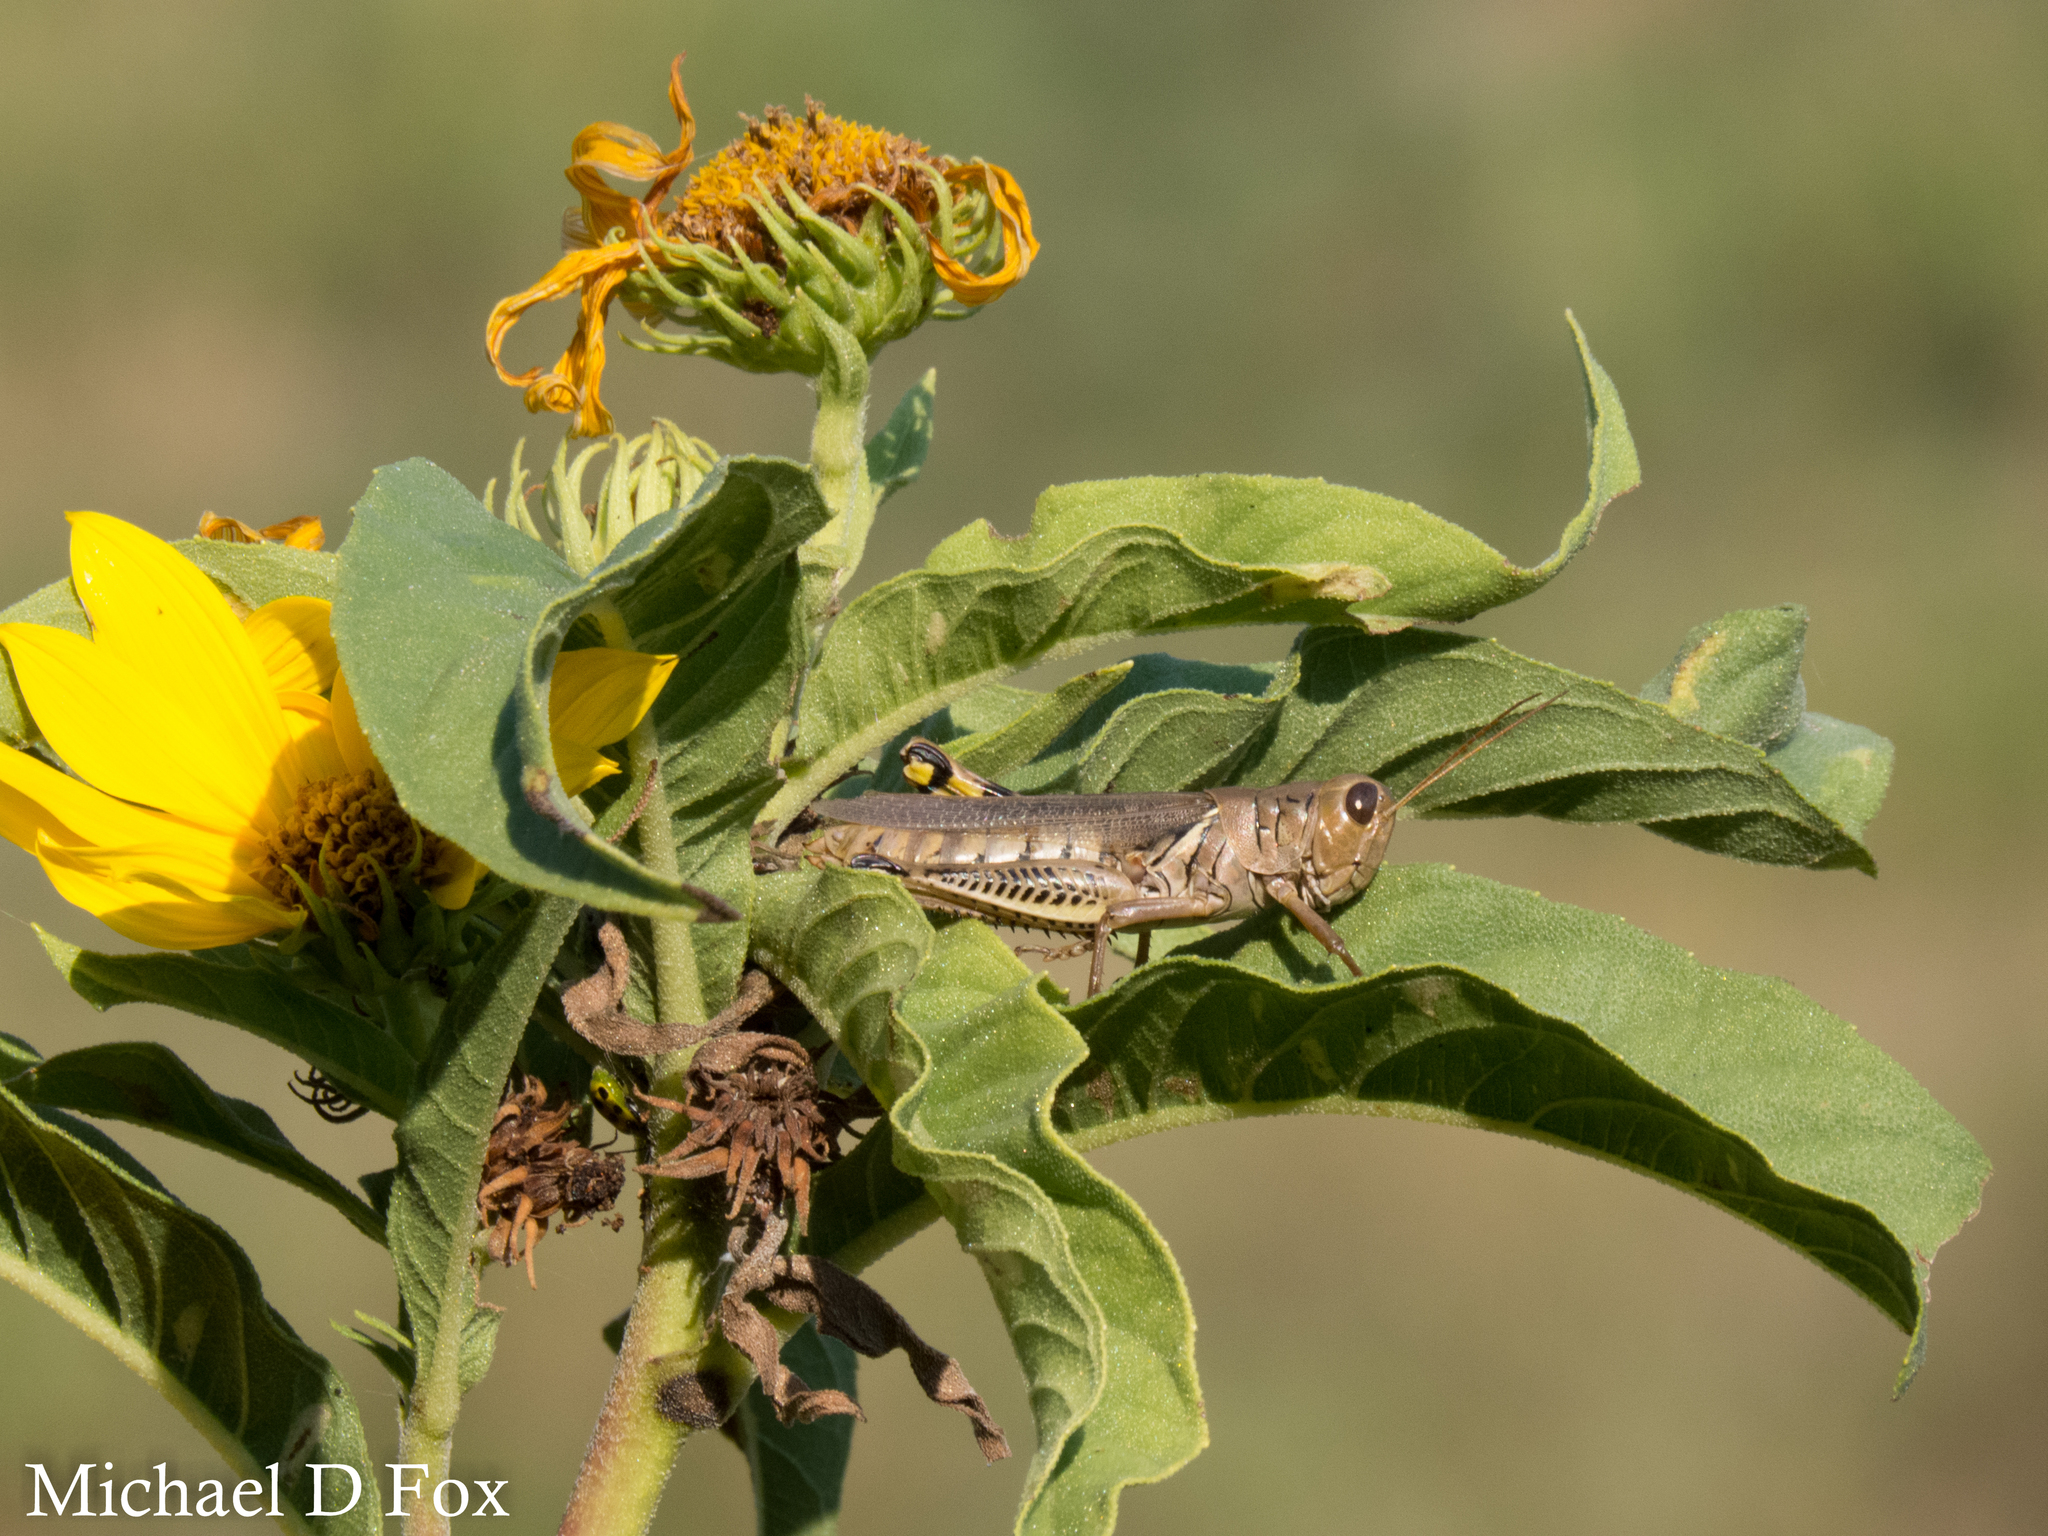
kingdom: Animalia
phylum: Arthropoda
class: Insecta
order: Orthoptera
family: Acrididae
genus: Melanoplus
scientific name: Melanoplus differentialis
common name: Differential grasshopper
